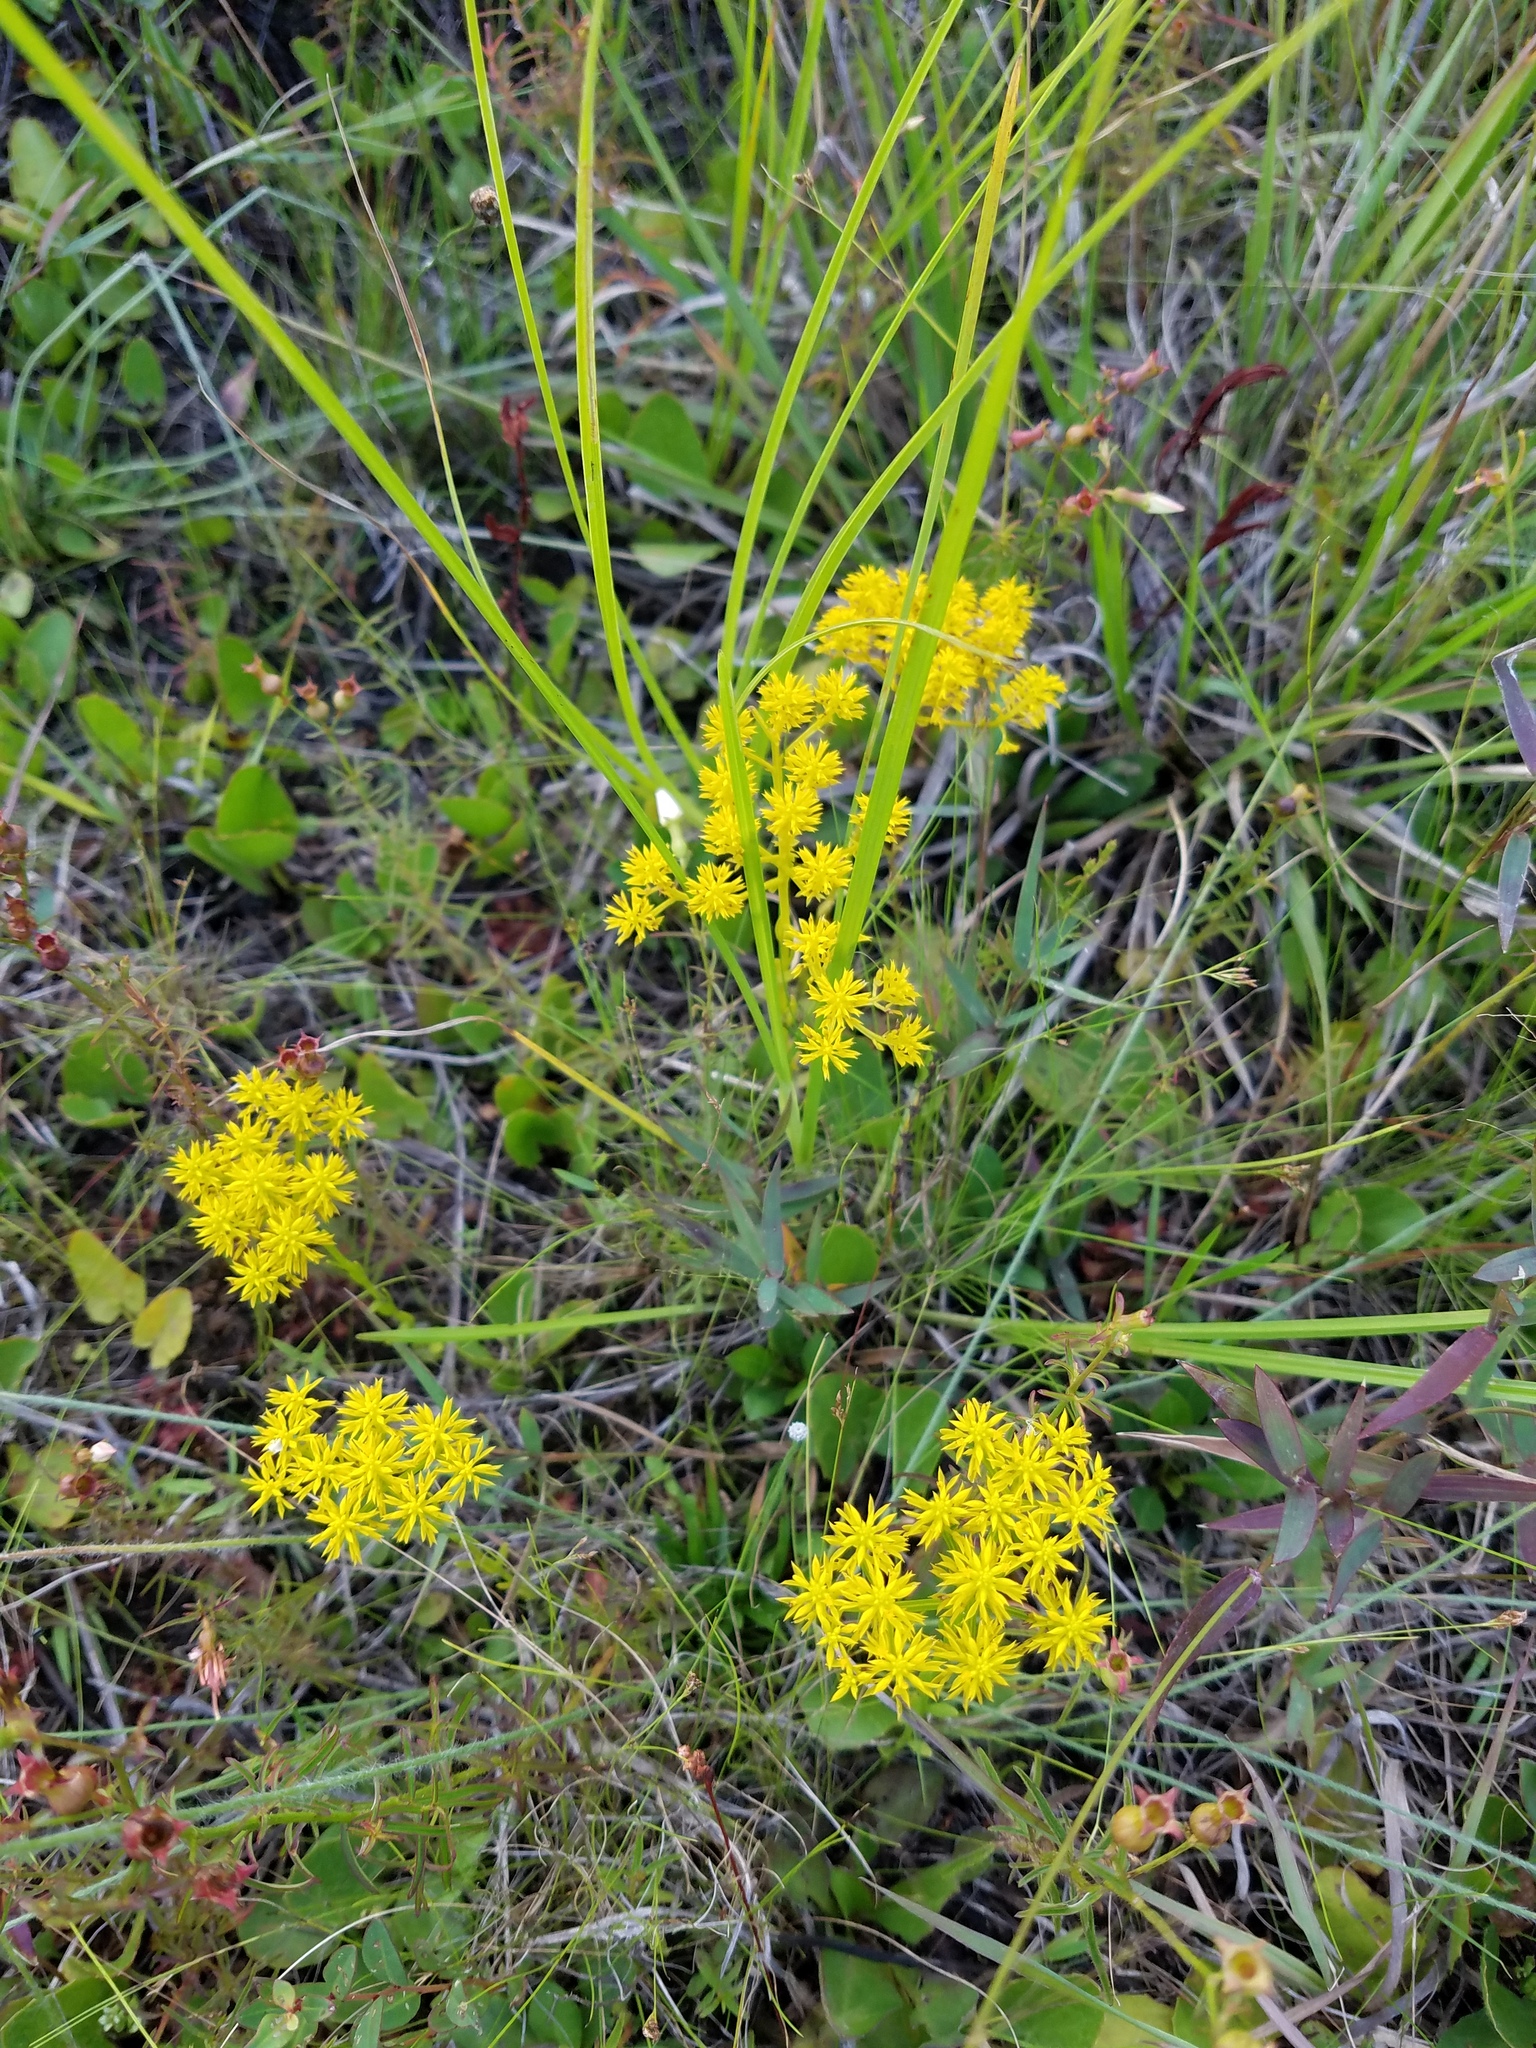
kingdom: Plantae
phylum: Tracheophyta
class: Magnoliopsida
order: Fabales
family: Polygalaceae
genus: Polygala
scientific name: Polygala ramosa
